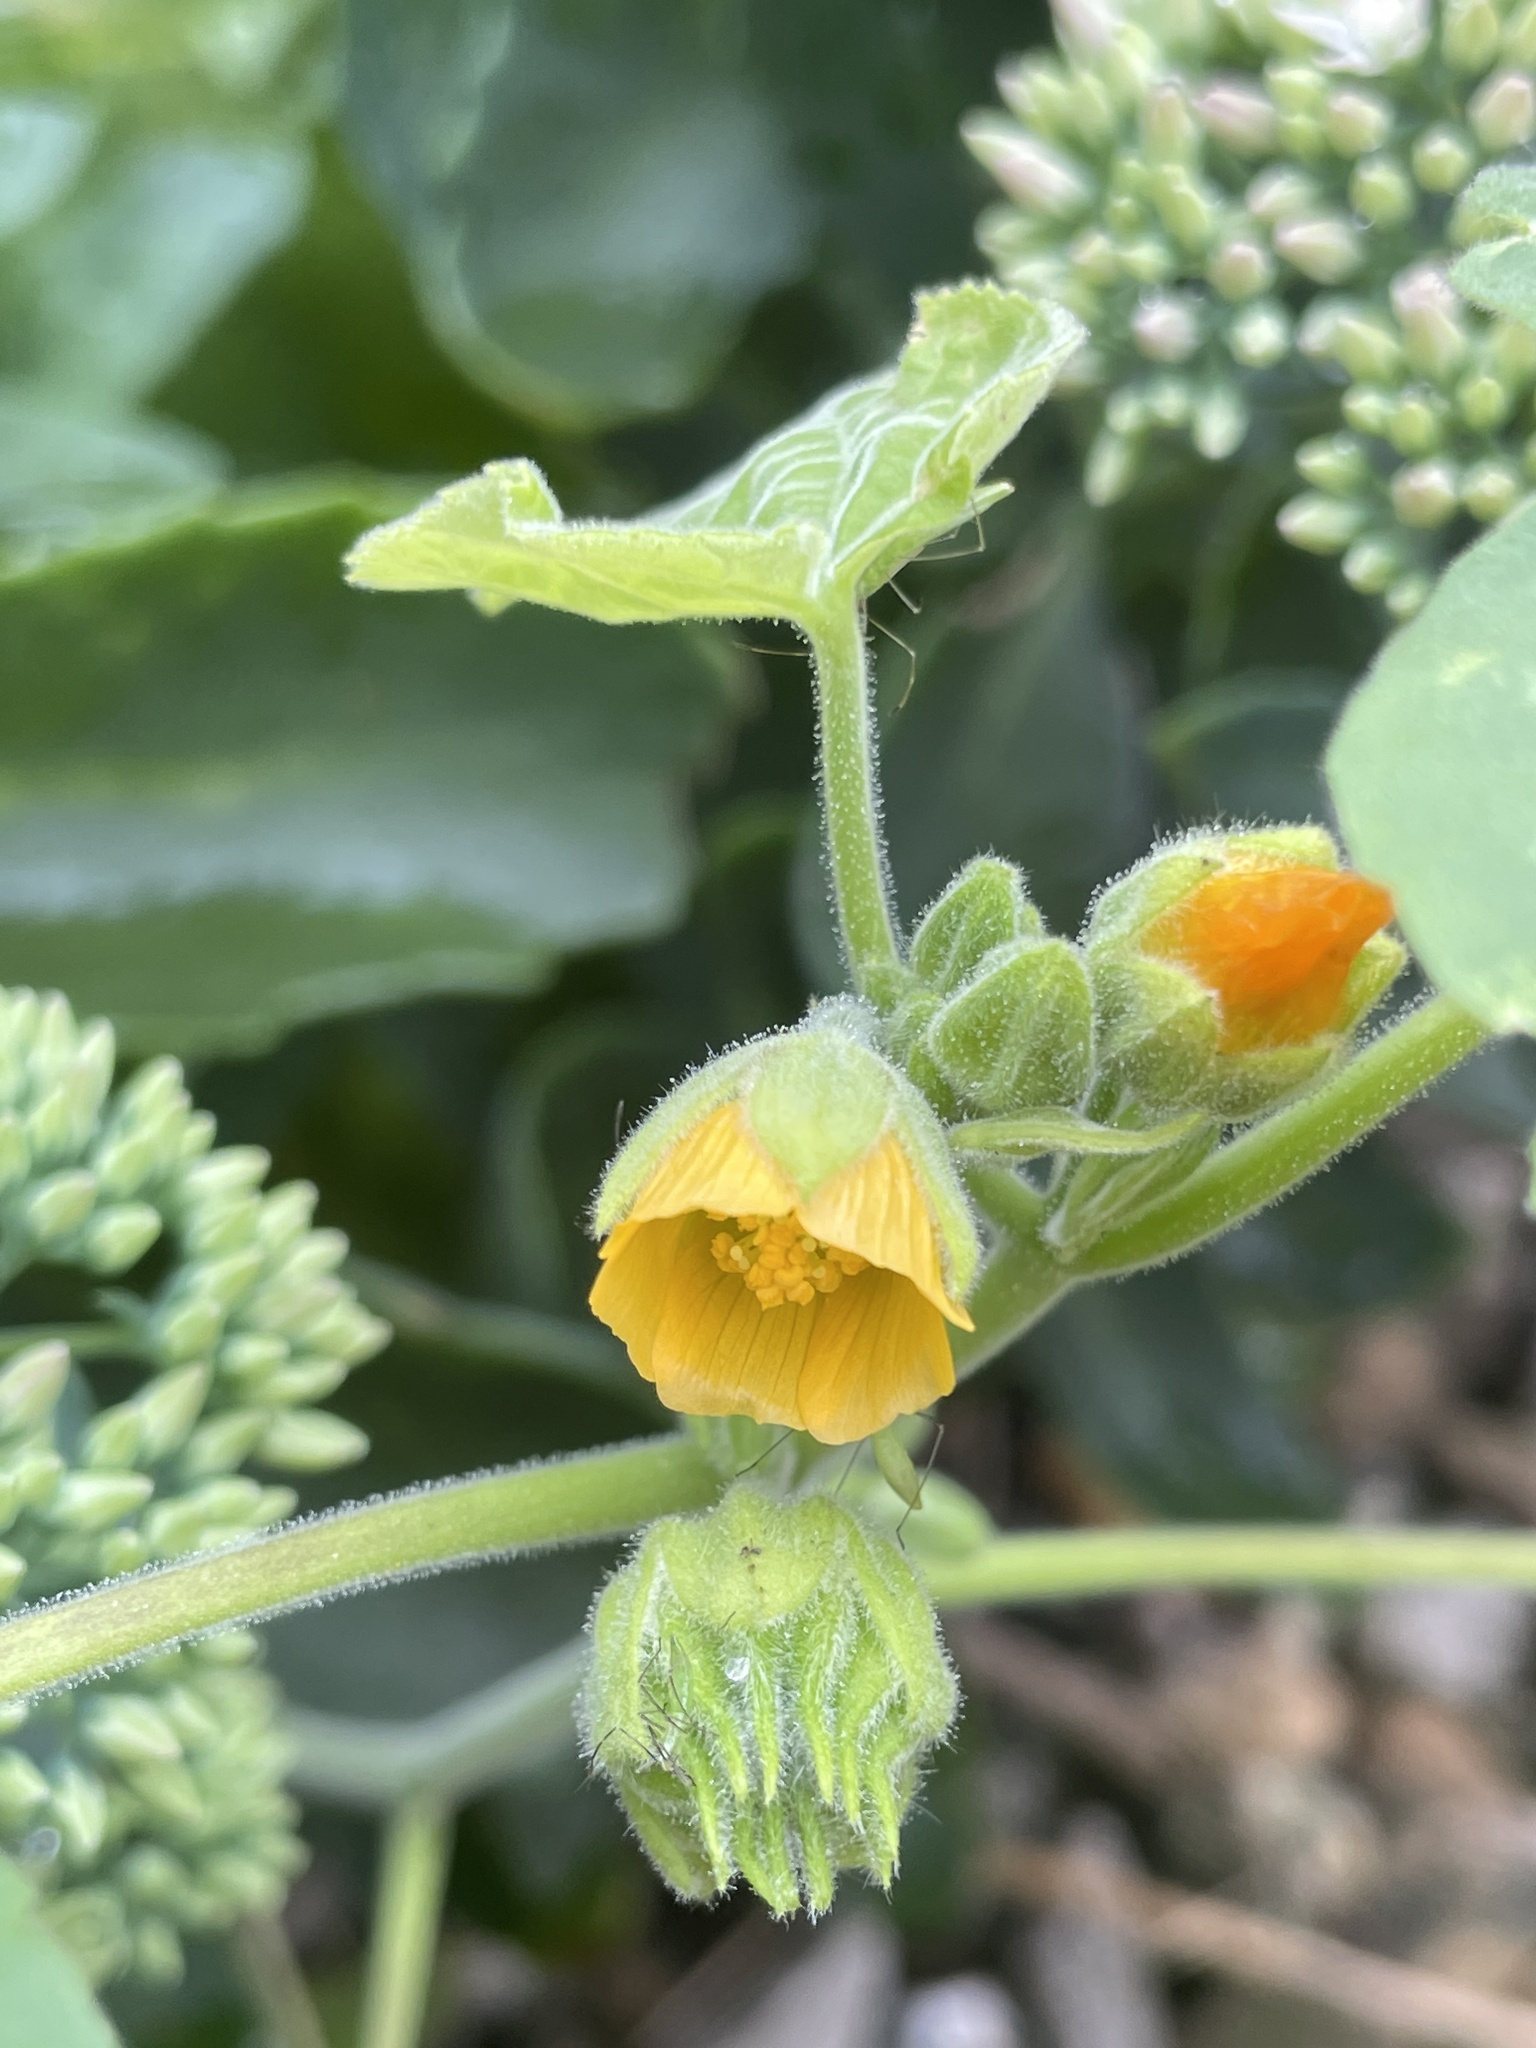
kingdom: Plantae
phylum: Tracheophyta
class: Magnoliopsida
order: Malvales
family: Malvaceae
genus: Abutilon
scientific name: Abutilon theophrasti
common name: Velvetleaf
